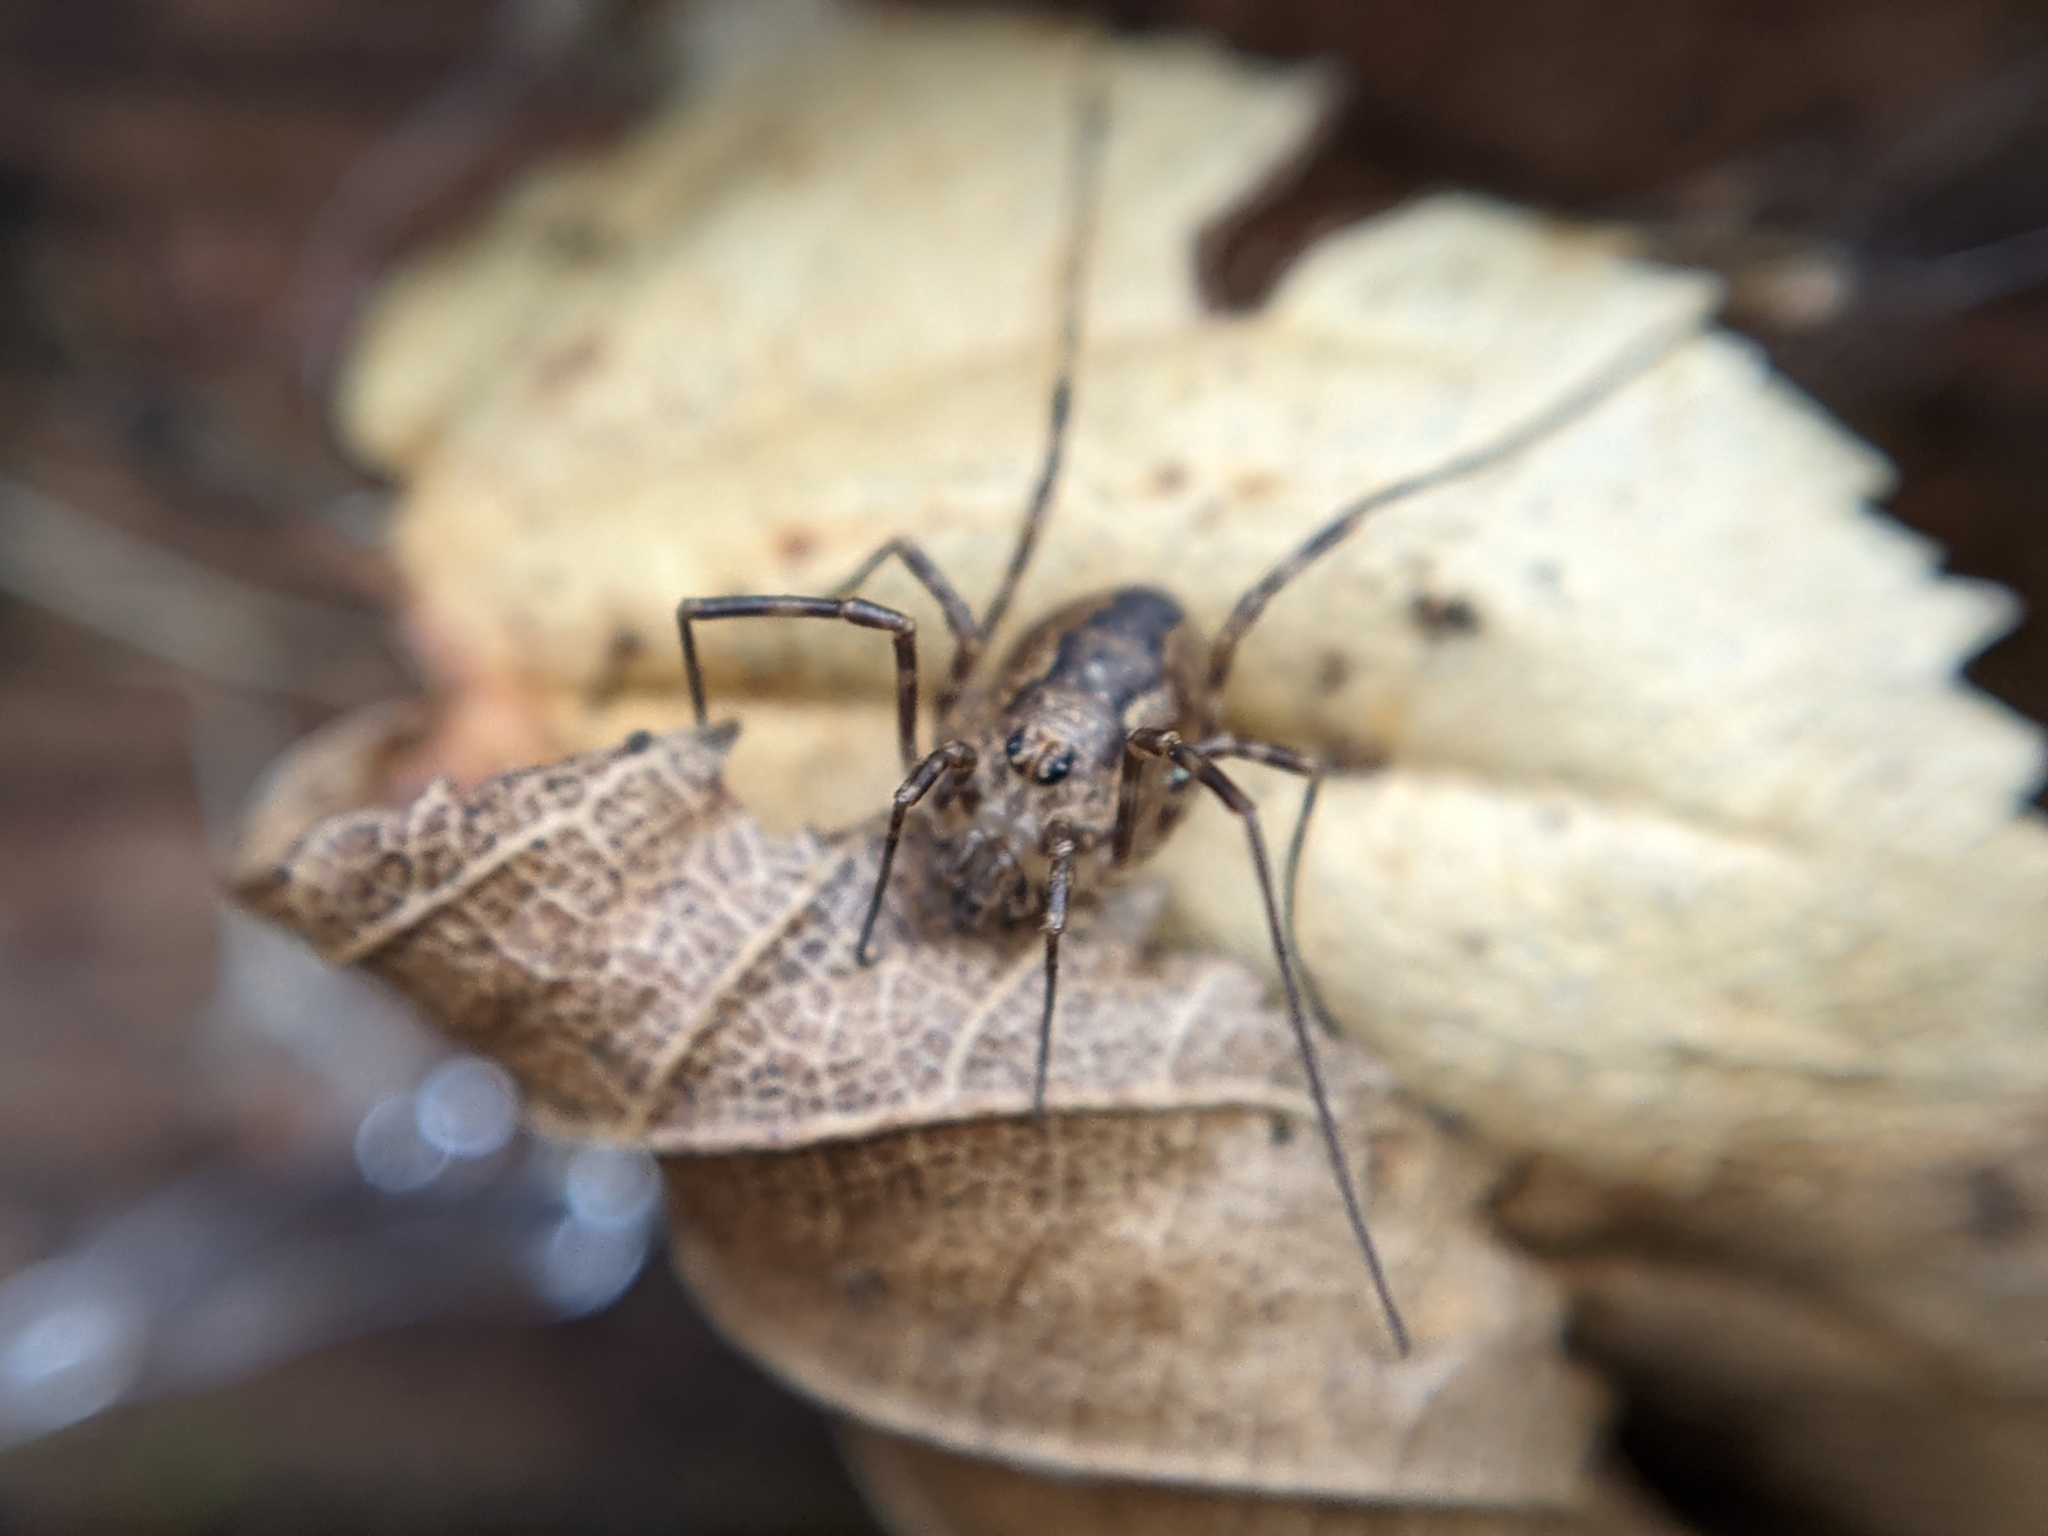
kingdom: Animalia
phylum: Arthropoda
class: Arachnida
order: Opiliones
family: Phalangiidae
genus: Rilaena
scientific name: Rilaena triangularis
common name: Spring harvestman
